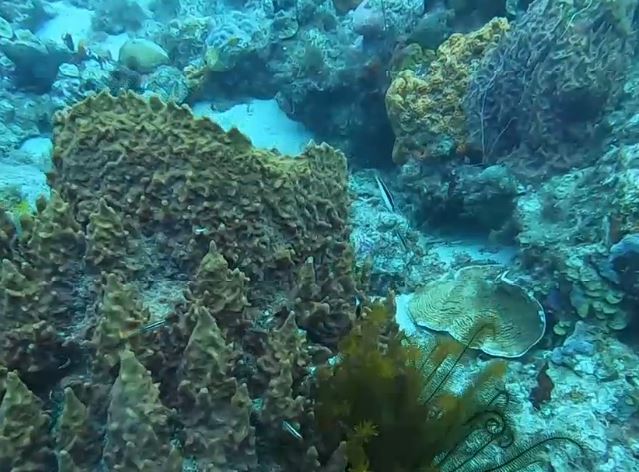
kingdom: Animalia
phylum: Chordata
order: Perciformes
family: Labridae
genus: Thalassoma
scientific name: Thalassoma bifasciatum
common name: Bluehead wrasse
